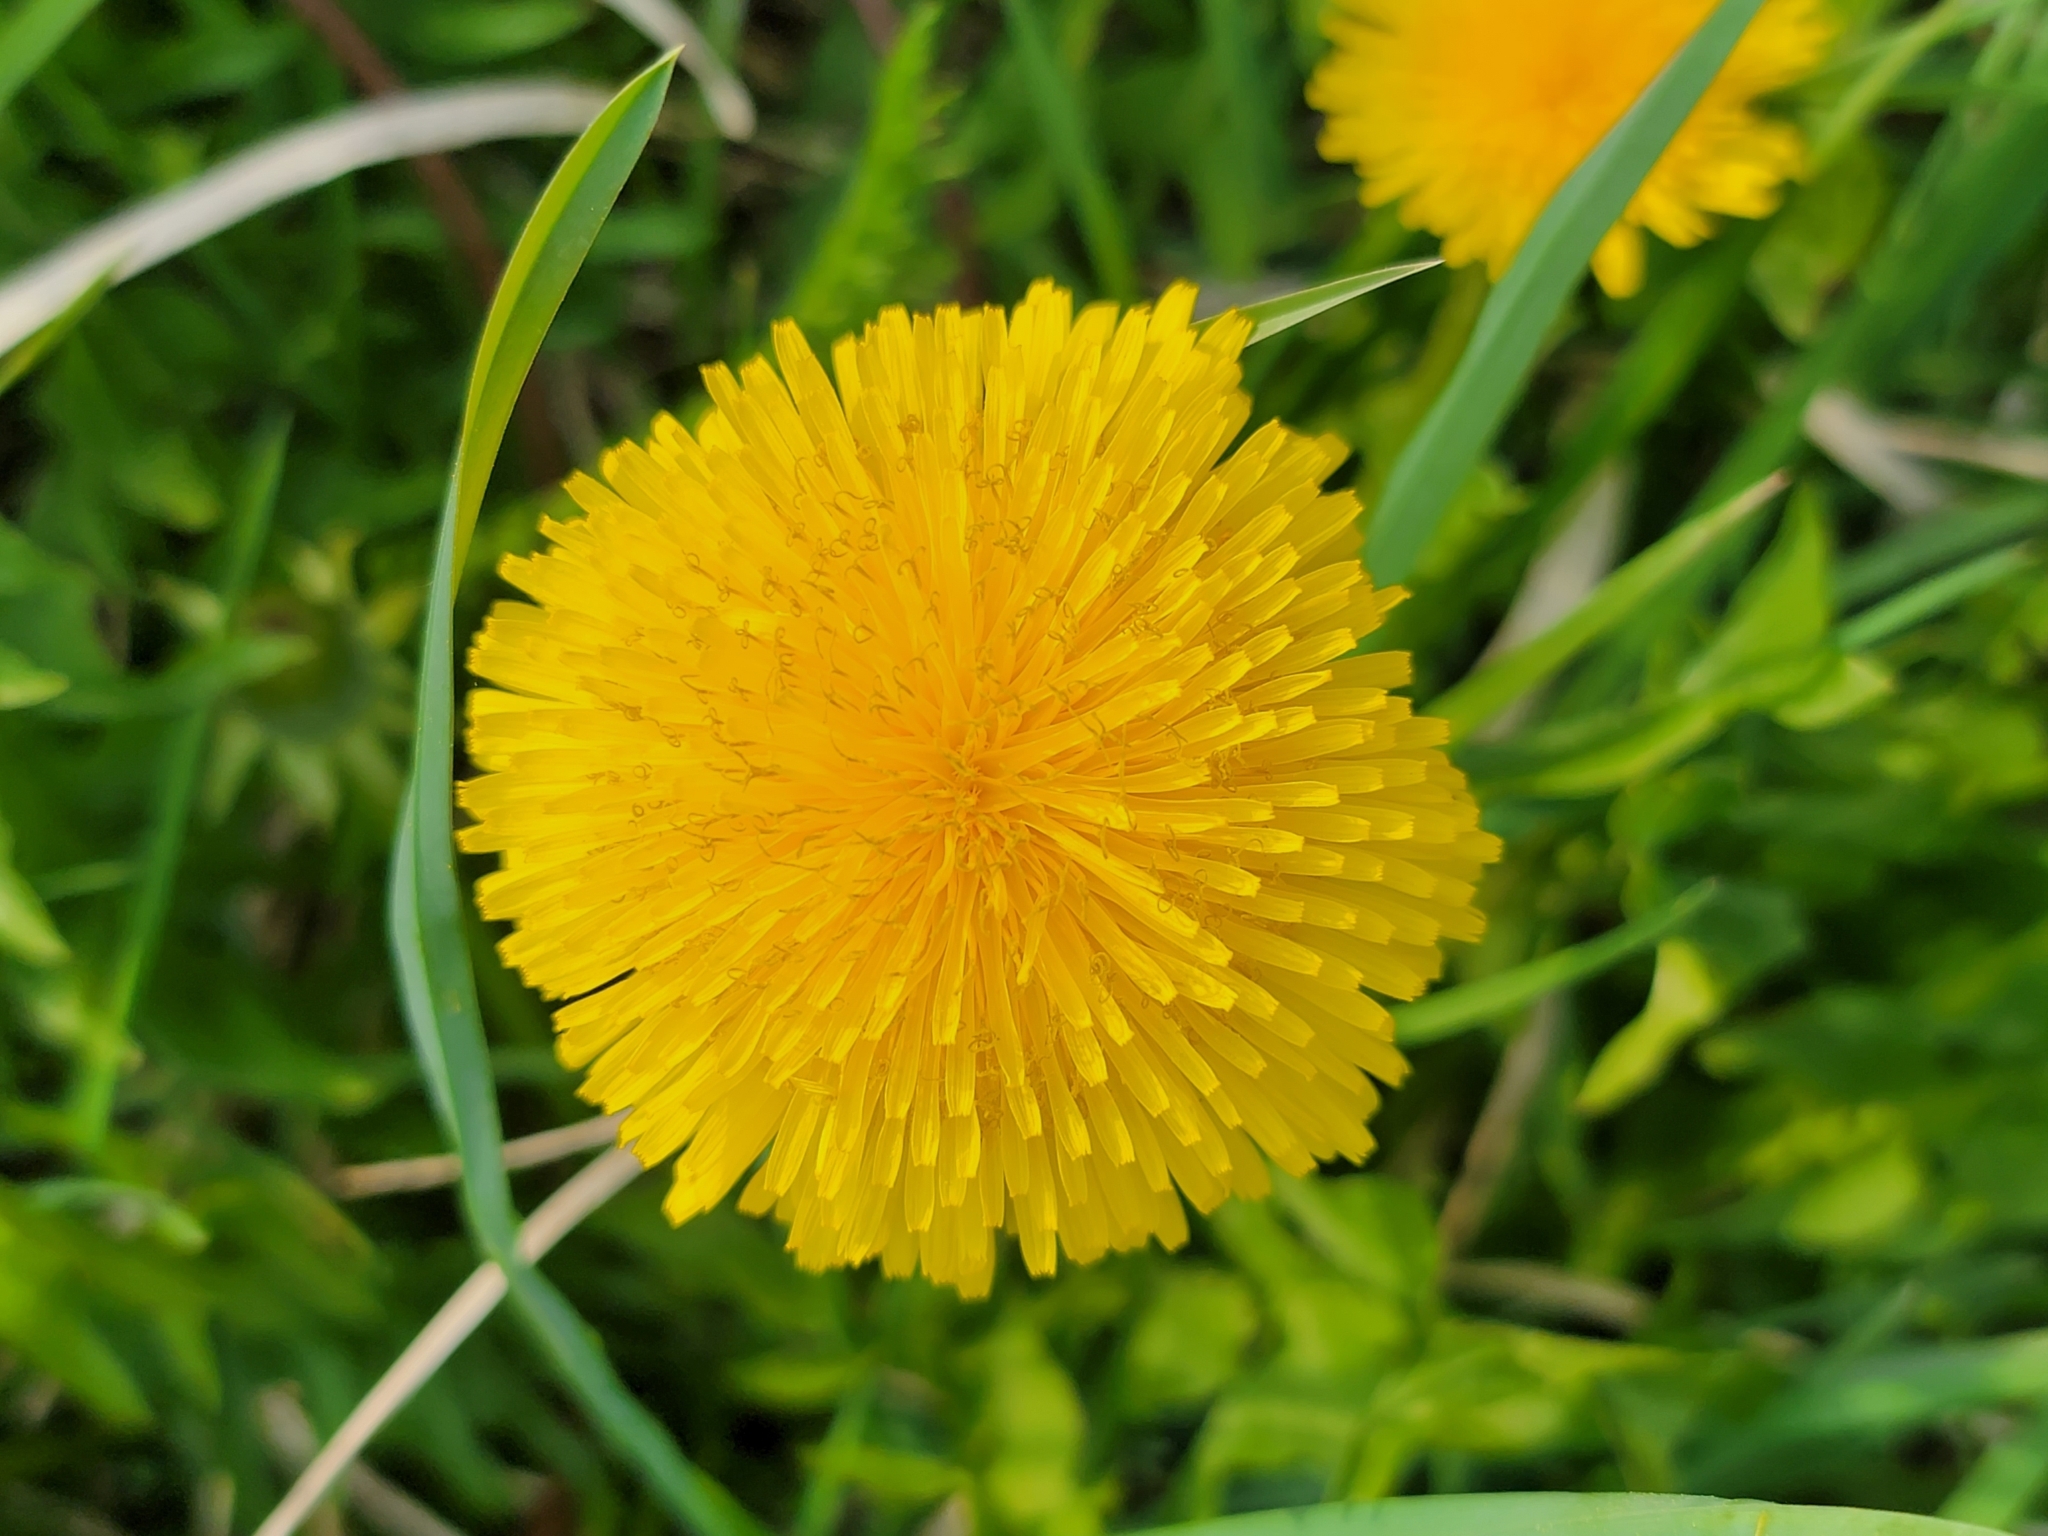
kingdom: Plantae
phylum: Tracheophyta
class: Magnoliopsida
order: Asterales
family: Asteraceae
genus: Taraxacum
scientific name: Taraxacum officinale
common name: Common dandelion
